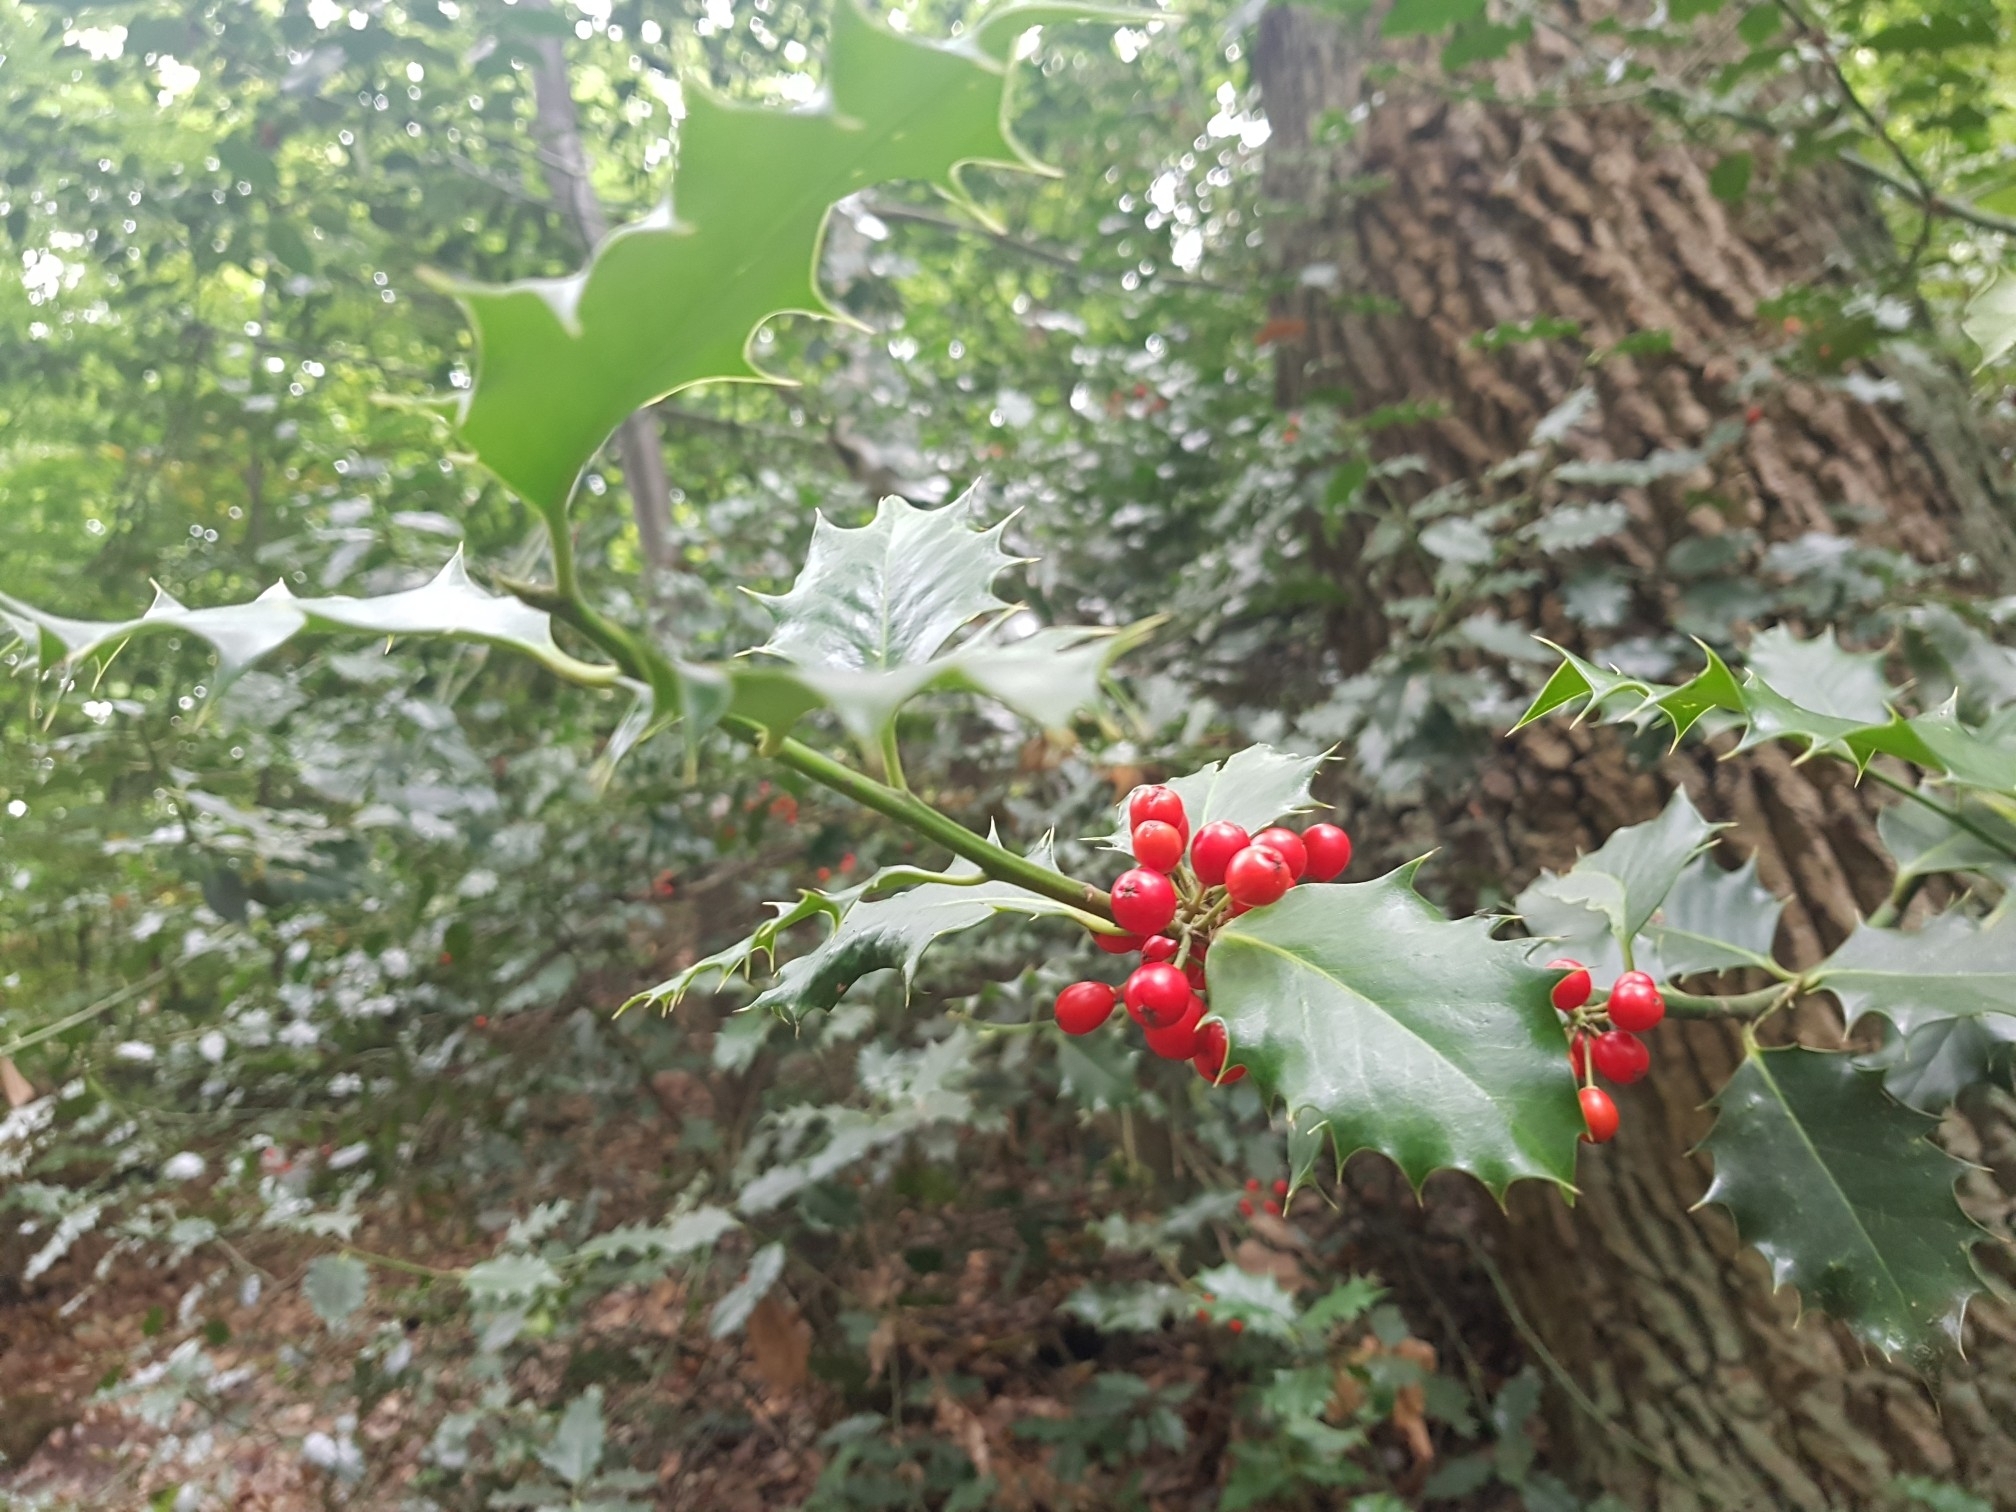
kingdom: Plantae
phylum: Tracheophyta
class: Magnoliopsida
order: Aquifoliales
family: Aquifoliaceae
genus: Ilex
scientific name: Ilex aquifolium
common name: English holly
